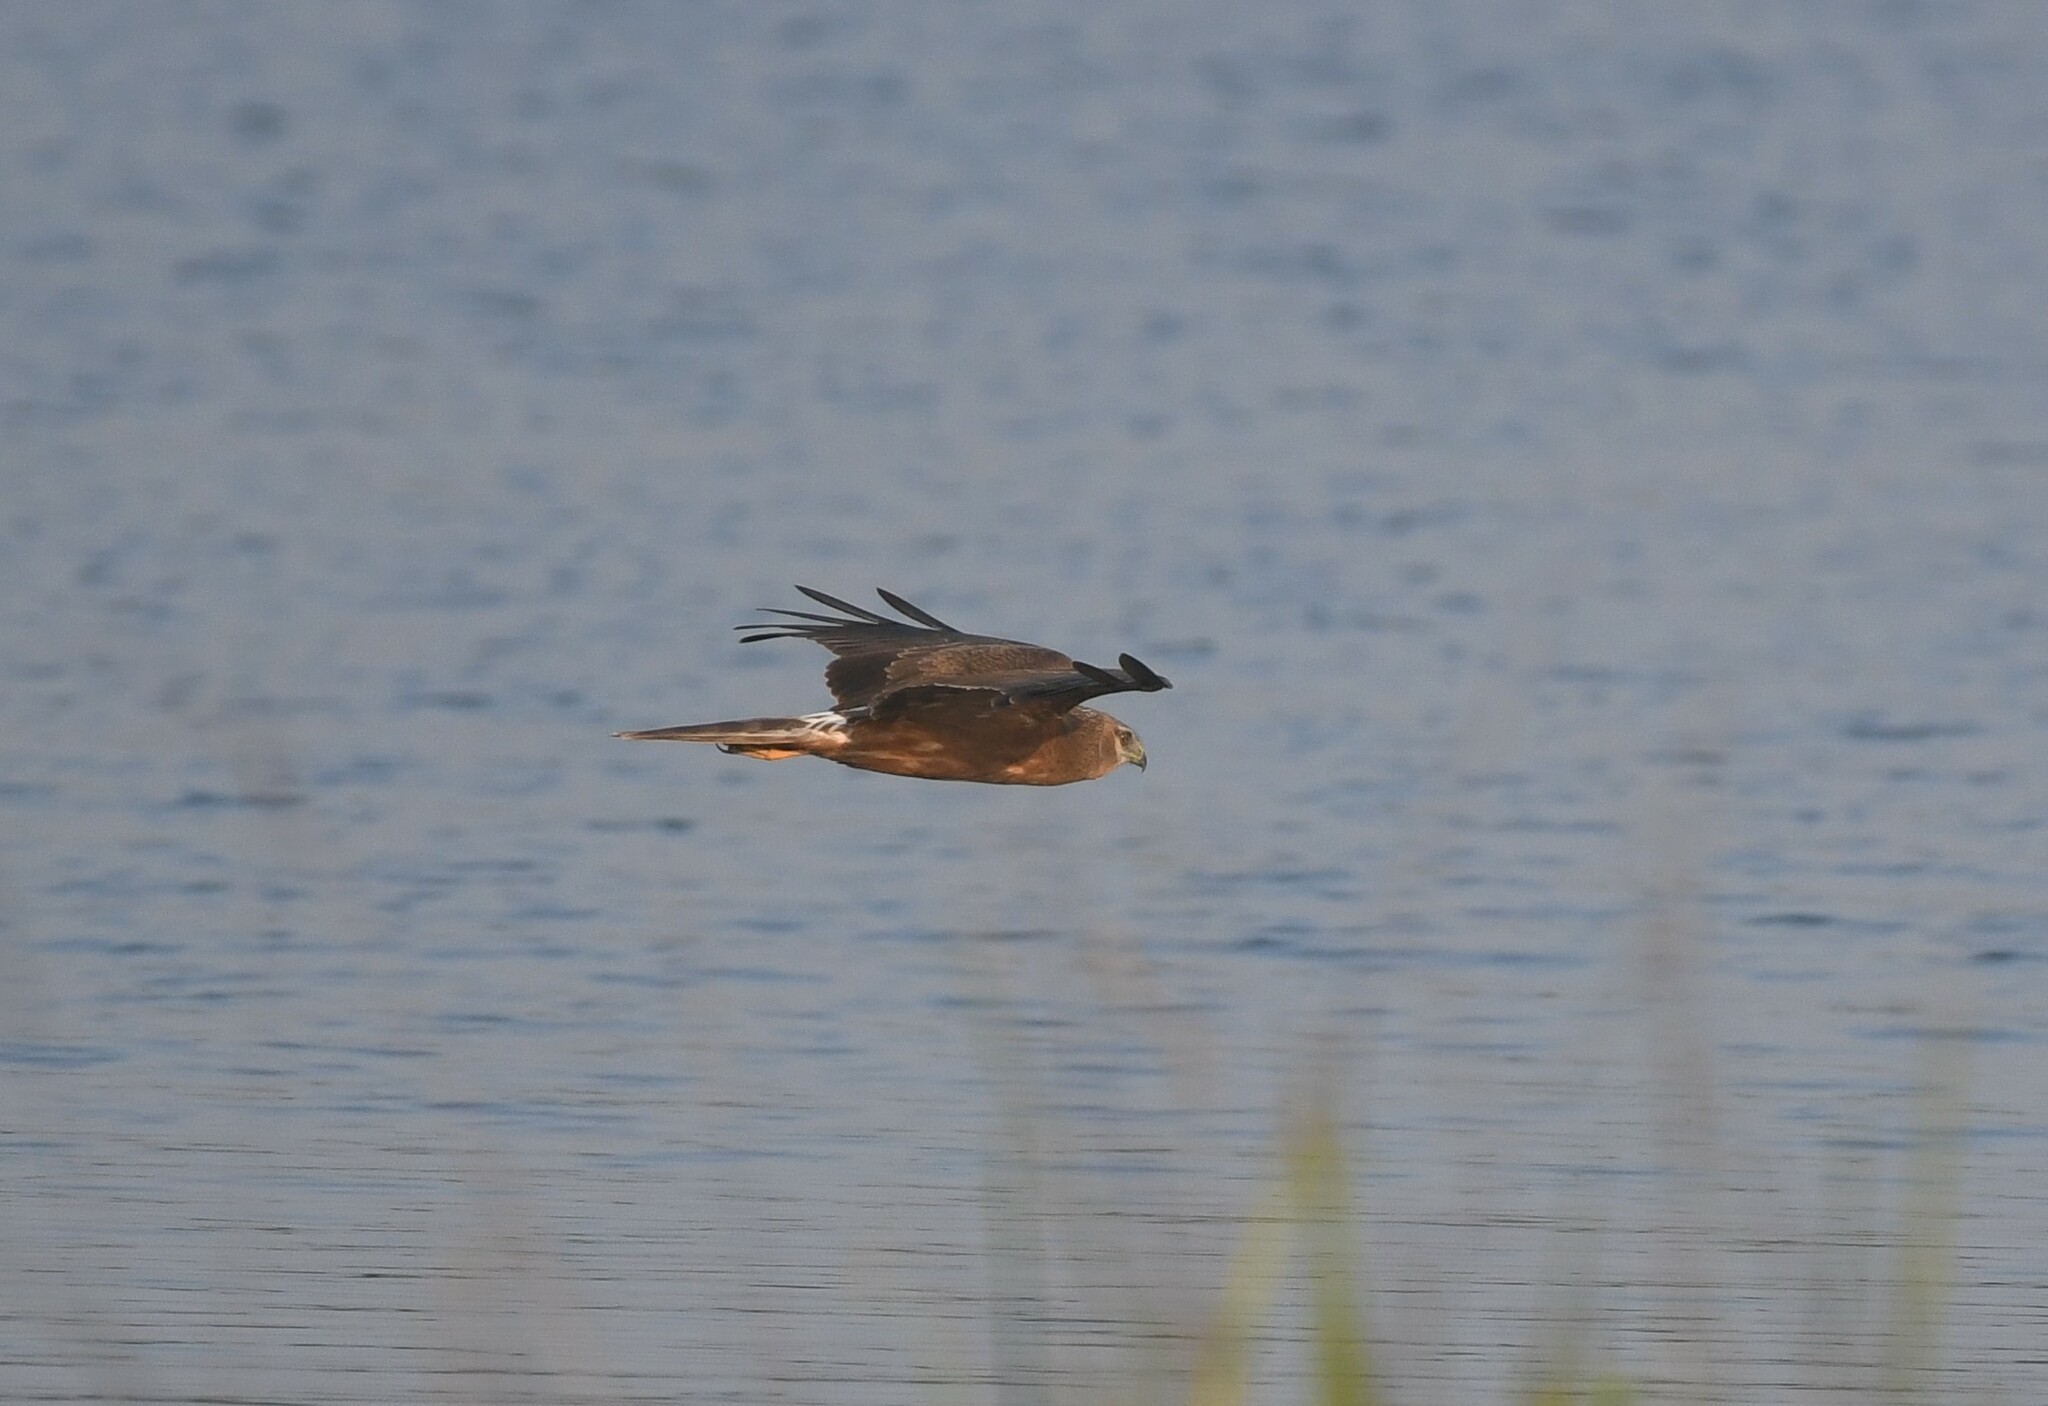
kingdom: Animalia
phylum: Chordata
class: Aves
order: Accipitriformes
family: Accipitridae
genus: Circus
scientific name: Circus spilonotus
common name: Eastern marsh-harrier
